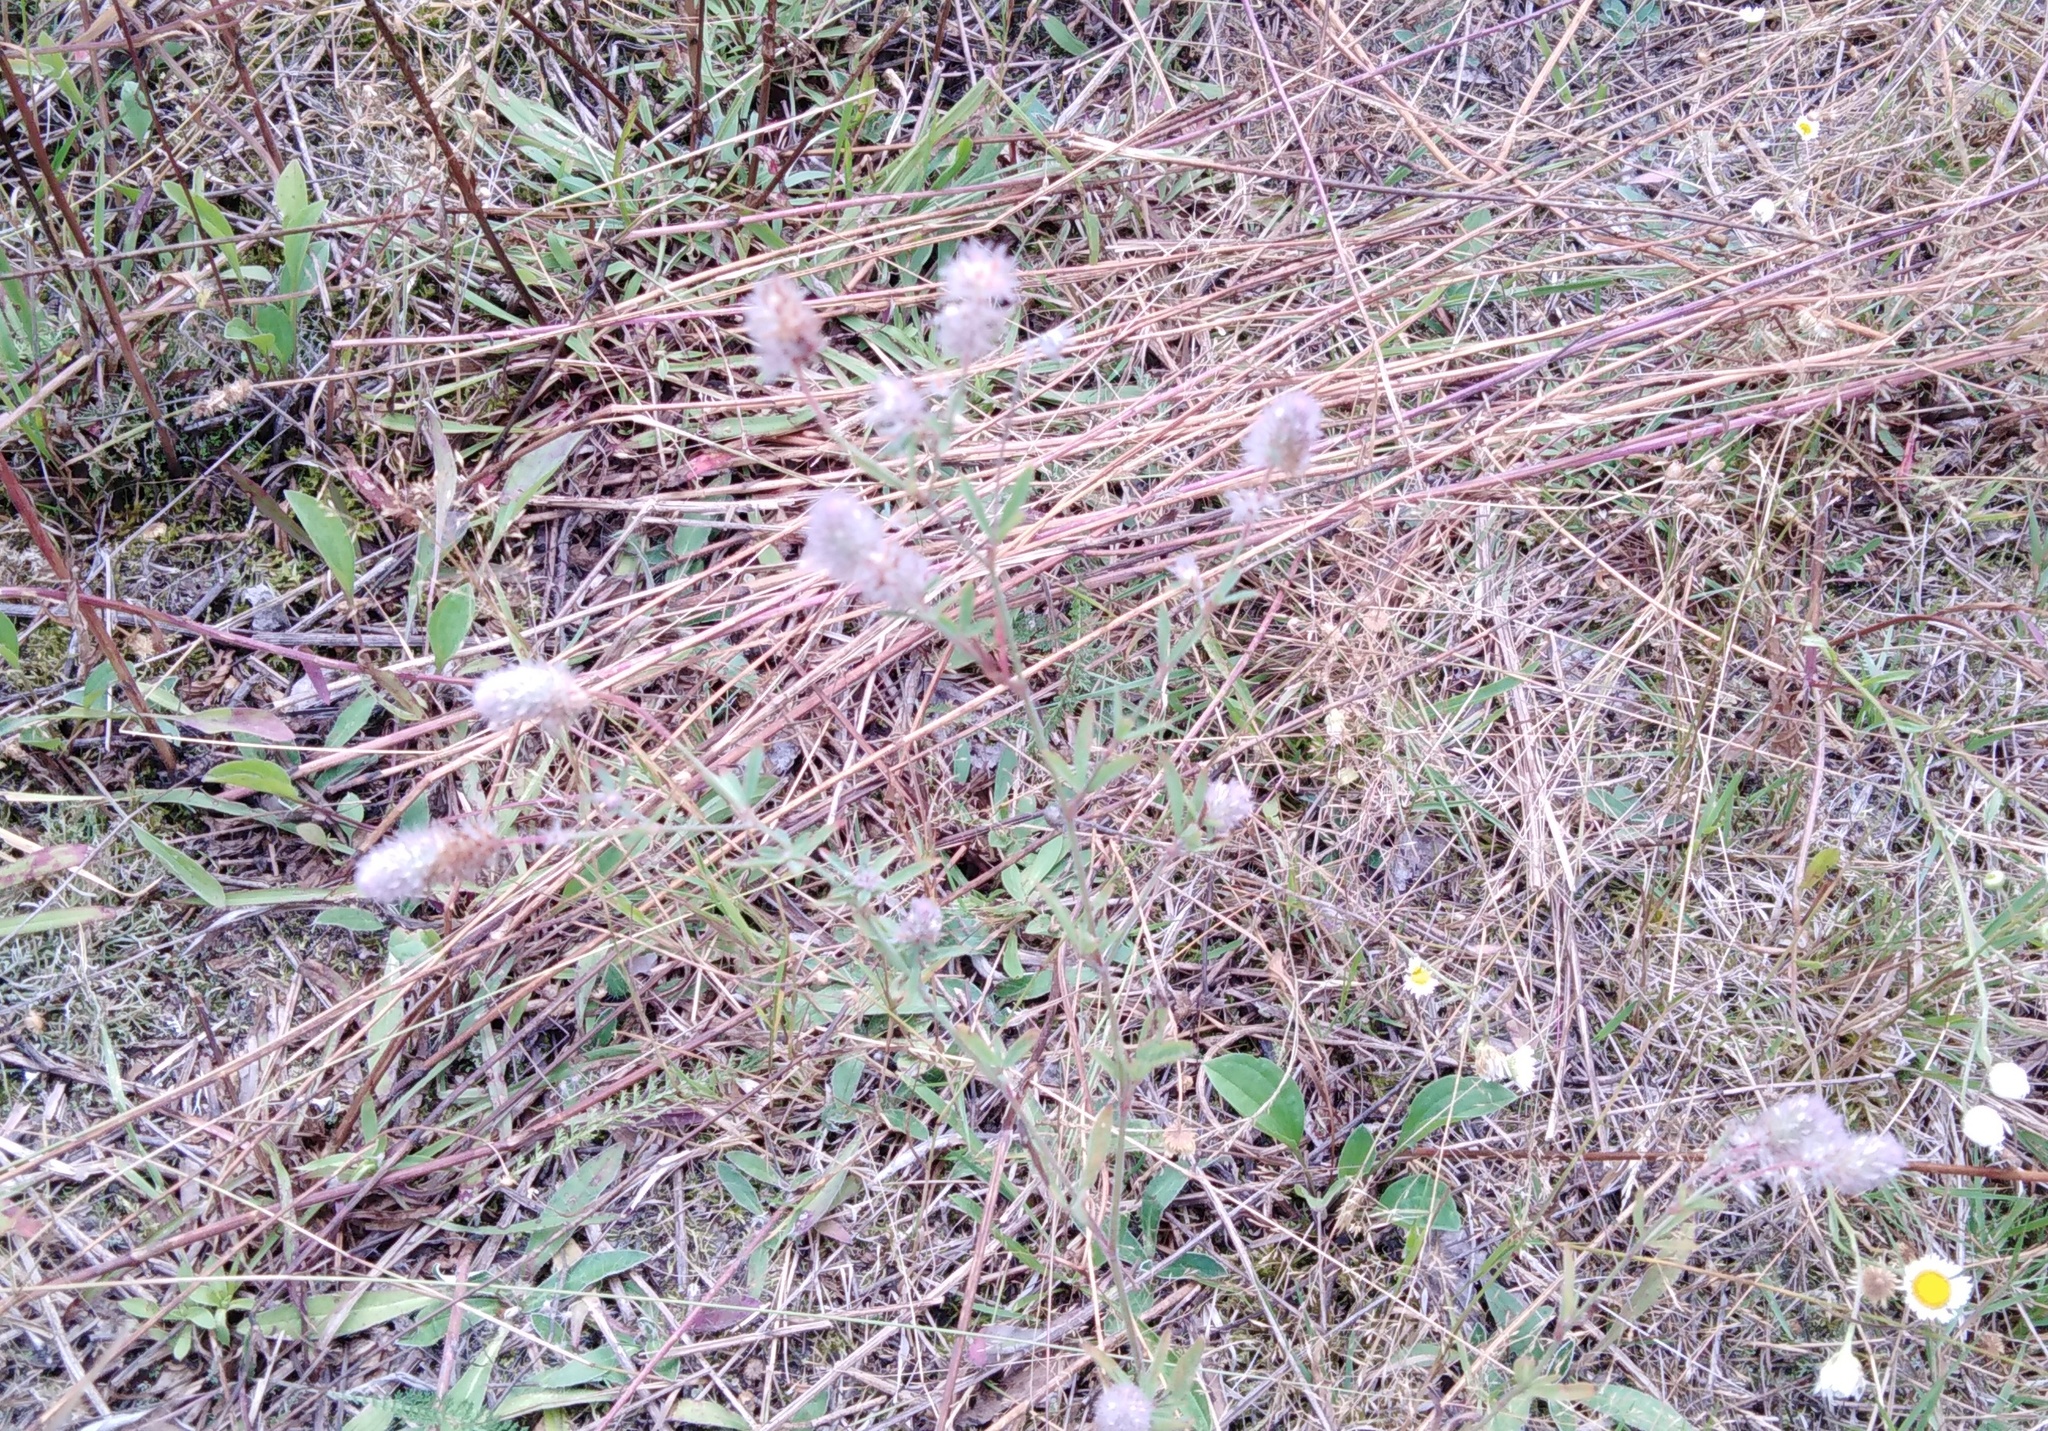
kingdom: Plantae
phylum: Tracheophyta
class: Magnoliopsida
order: Fabales
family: Fabaceae
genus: Trifolium
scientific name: Trifolium arvense
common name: Hare's-foot clover
